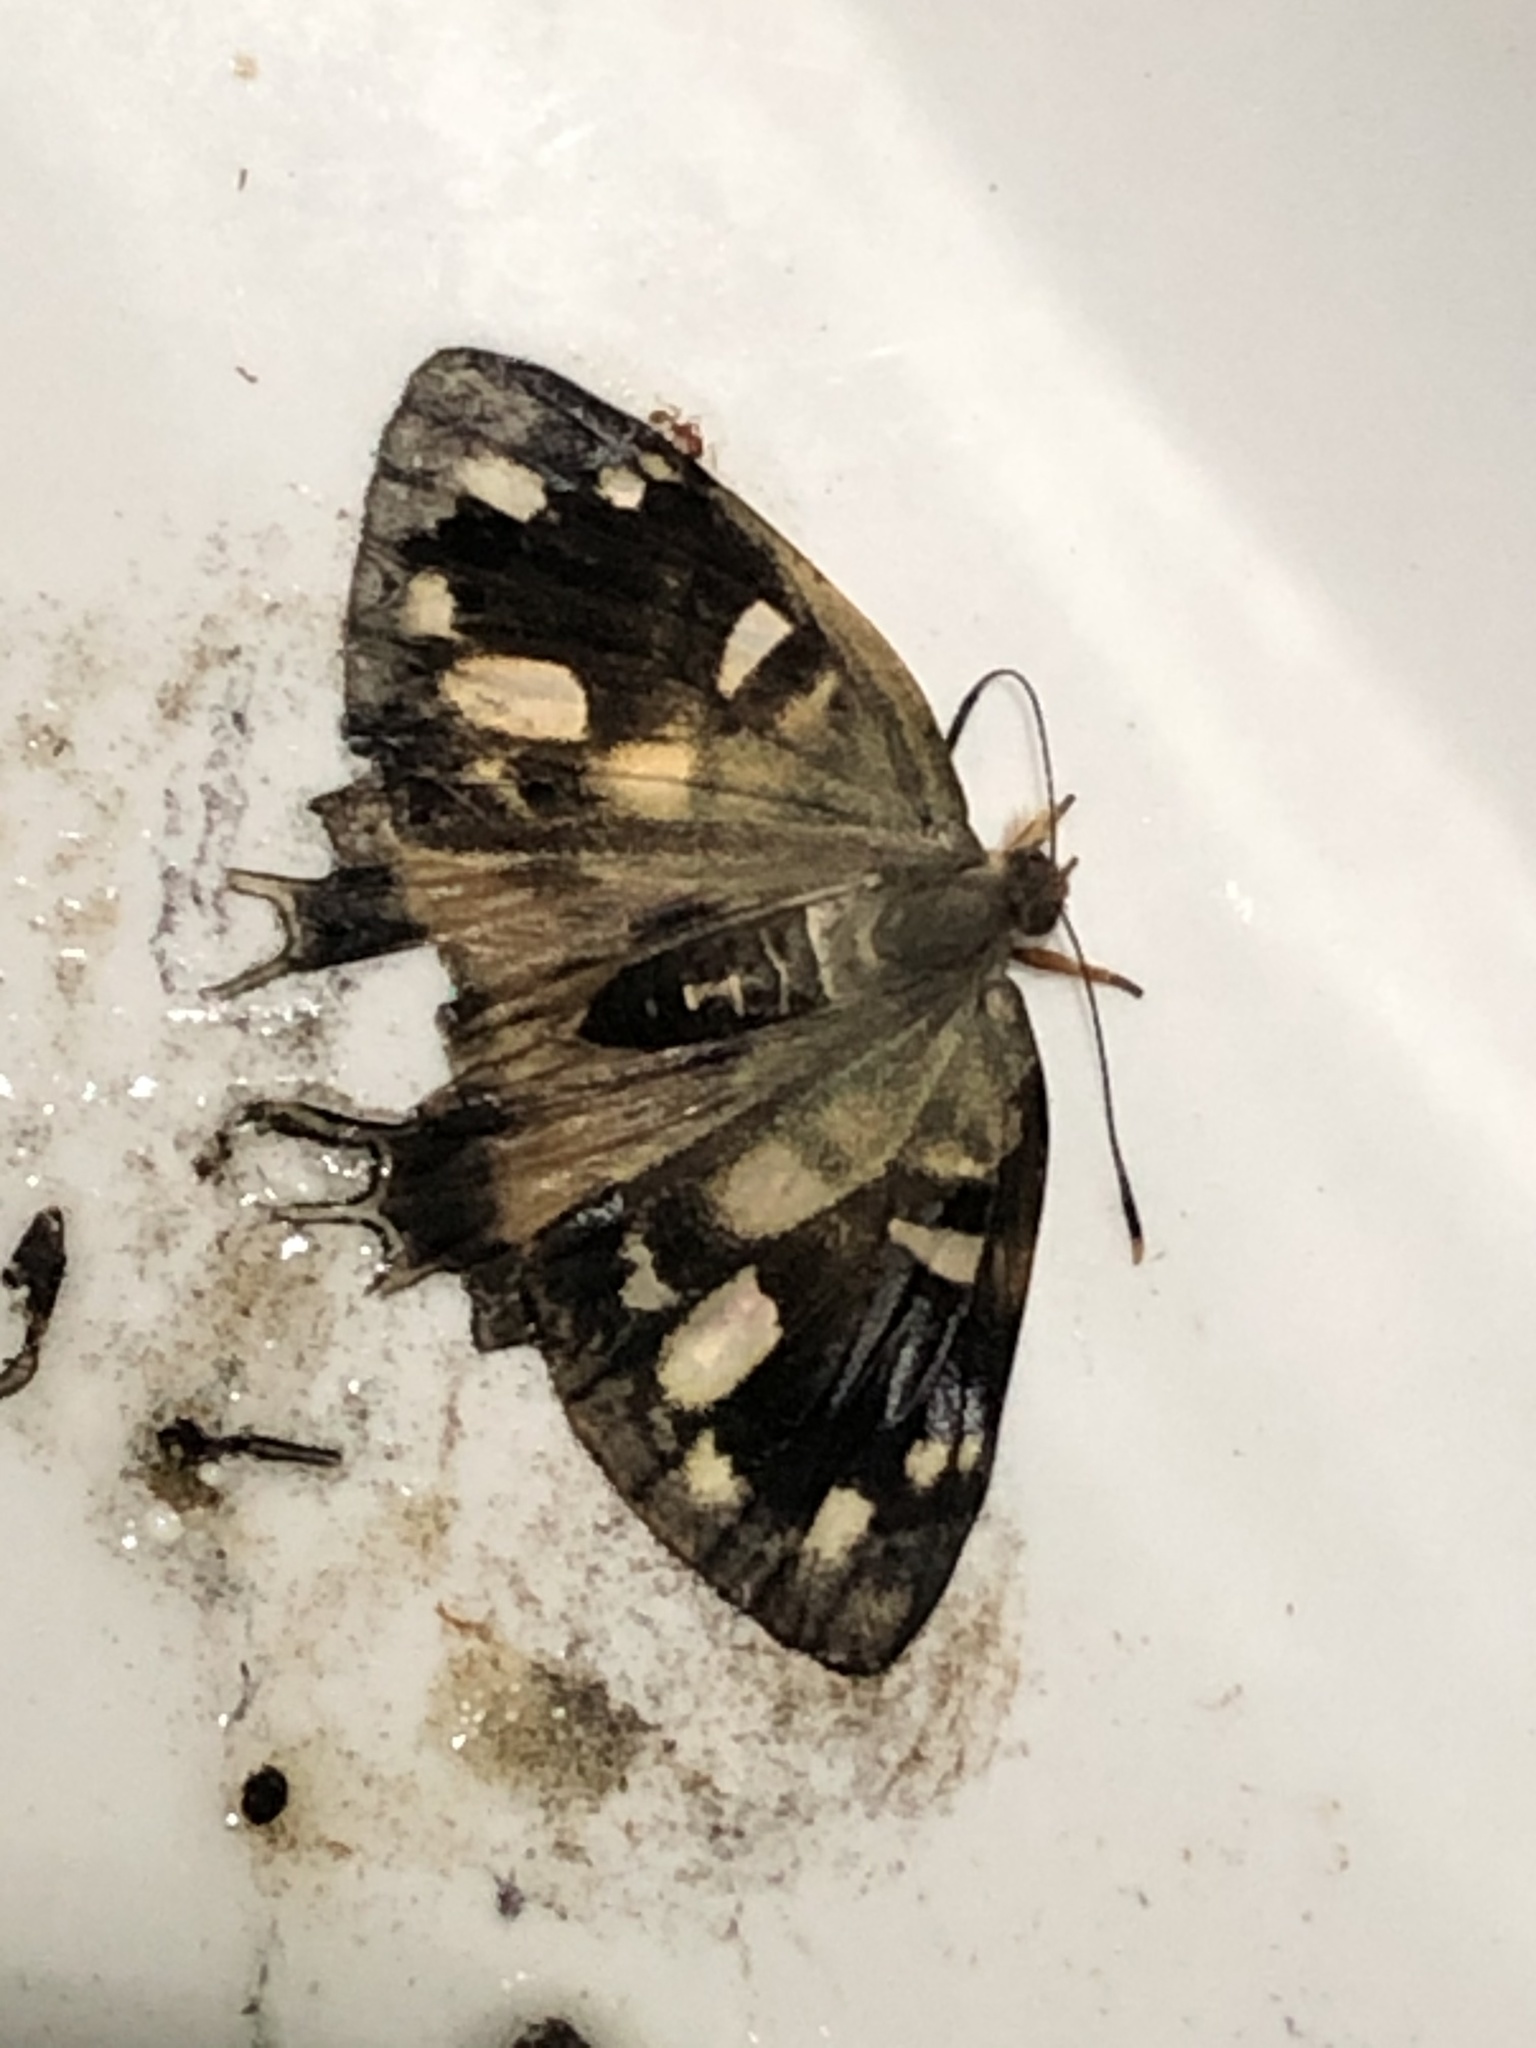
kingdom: Animalia
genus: Charis
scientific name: Charis Sarota chrysus
